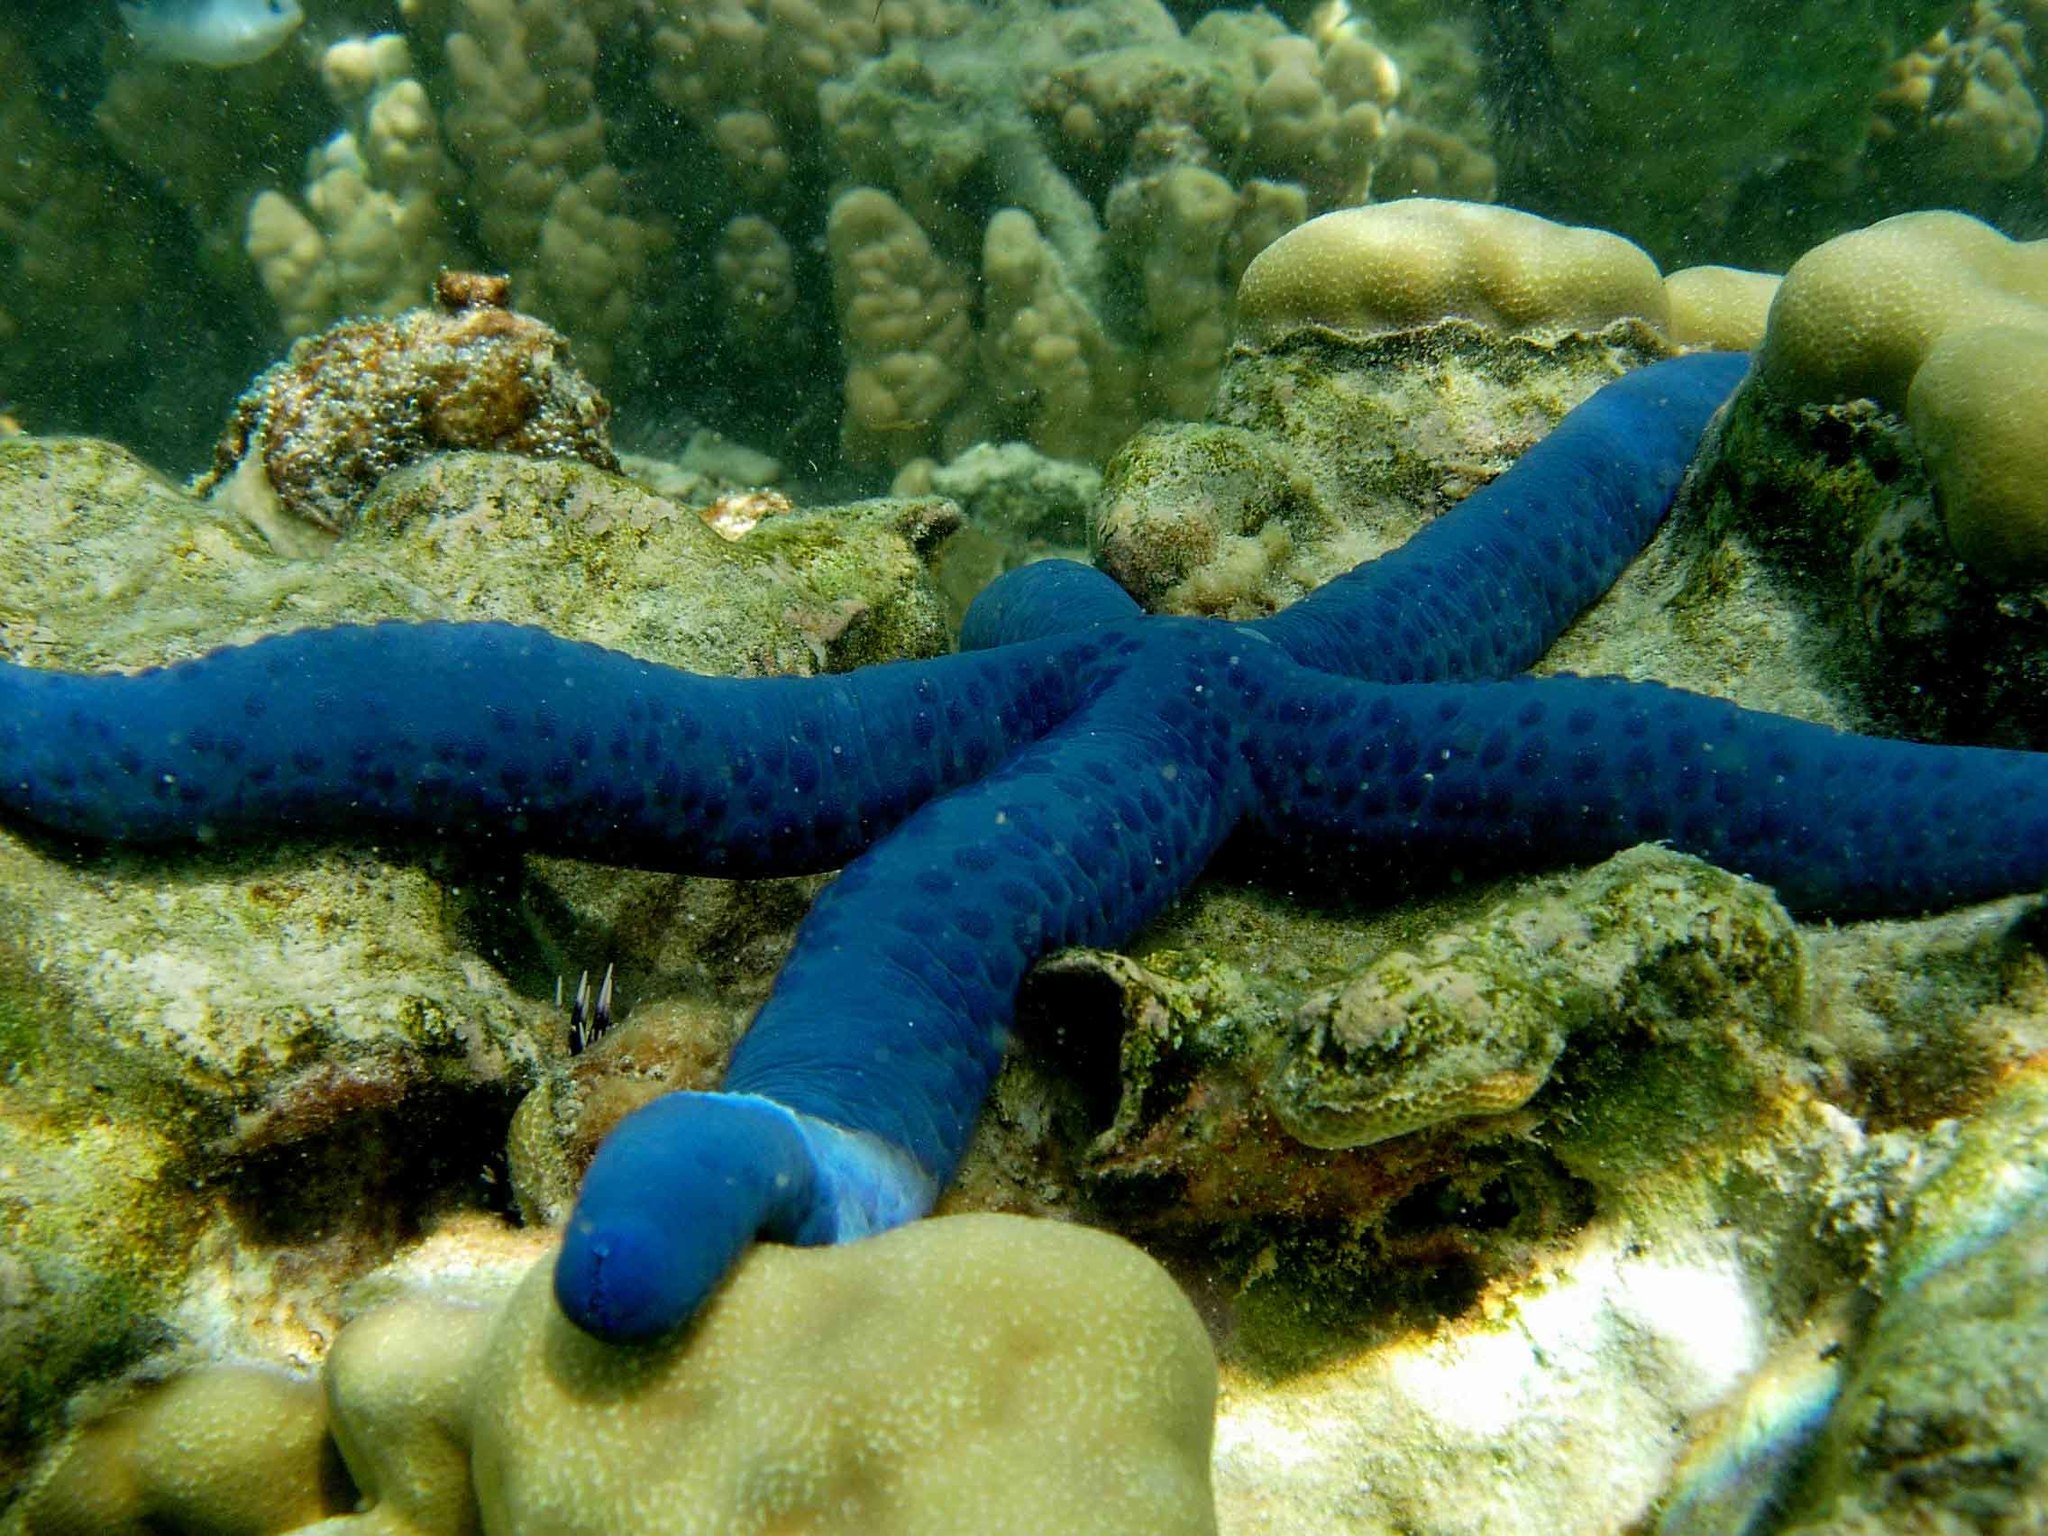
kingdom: Animalia
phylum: Echinodermata
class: Asteroidea
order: Valvatida
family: Ophidiasteridae
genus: Linckia
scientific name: Linckia laevigata
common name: Azure sea star
